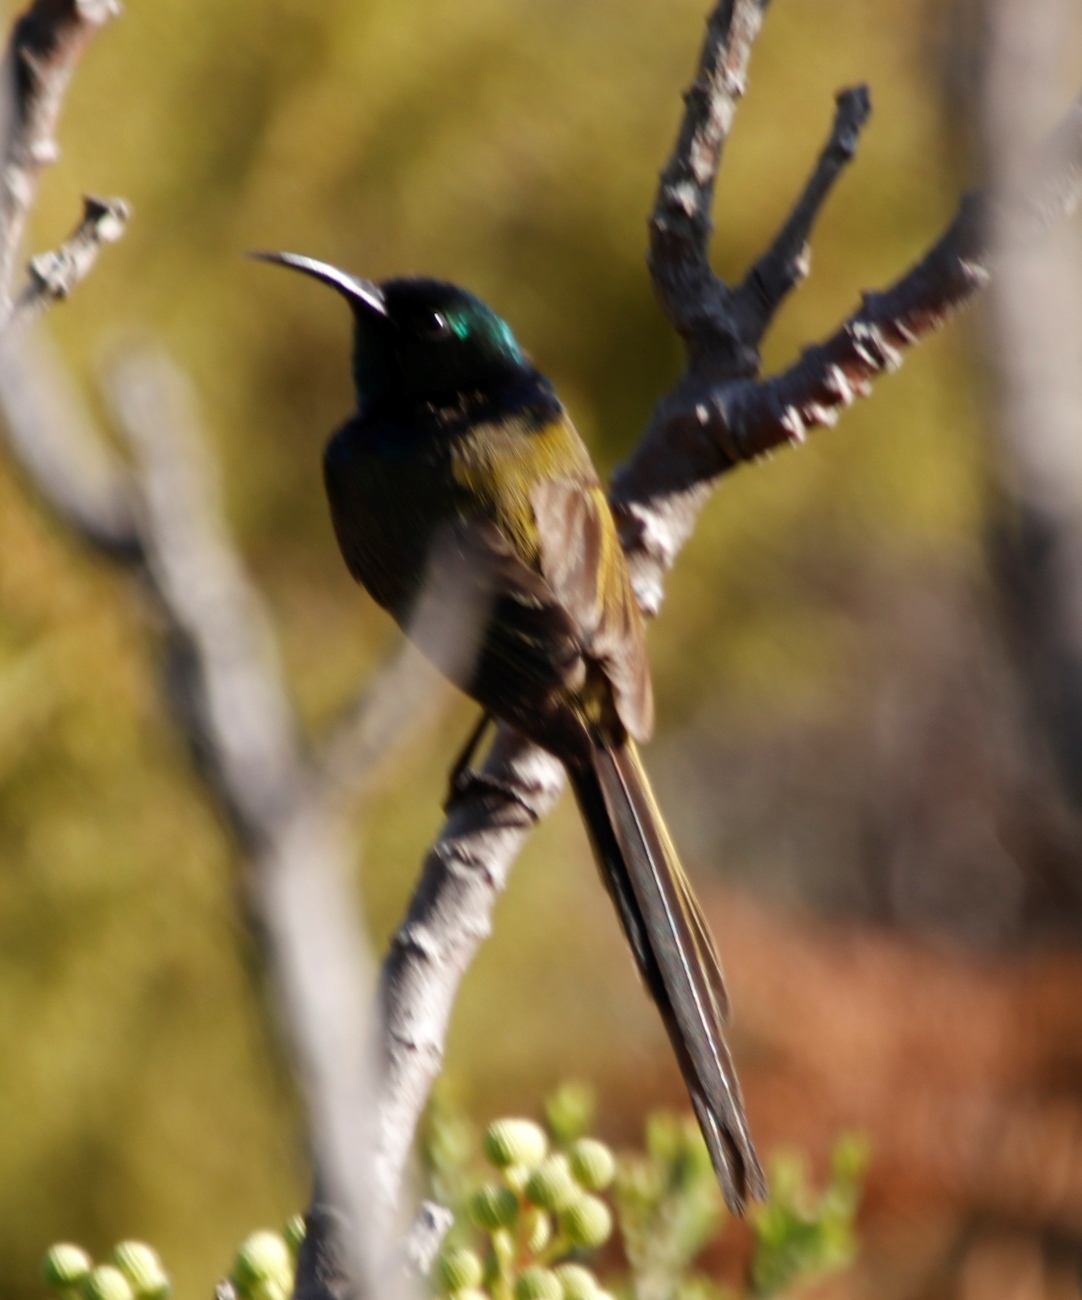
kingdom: Animalia
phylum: Chordata
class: Aves
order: Passeriformes
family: Nectariniidae
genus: Anthobaphes
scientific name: Anthobaphes violacea
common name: Orange-breasted sunbird
